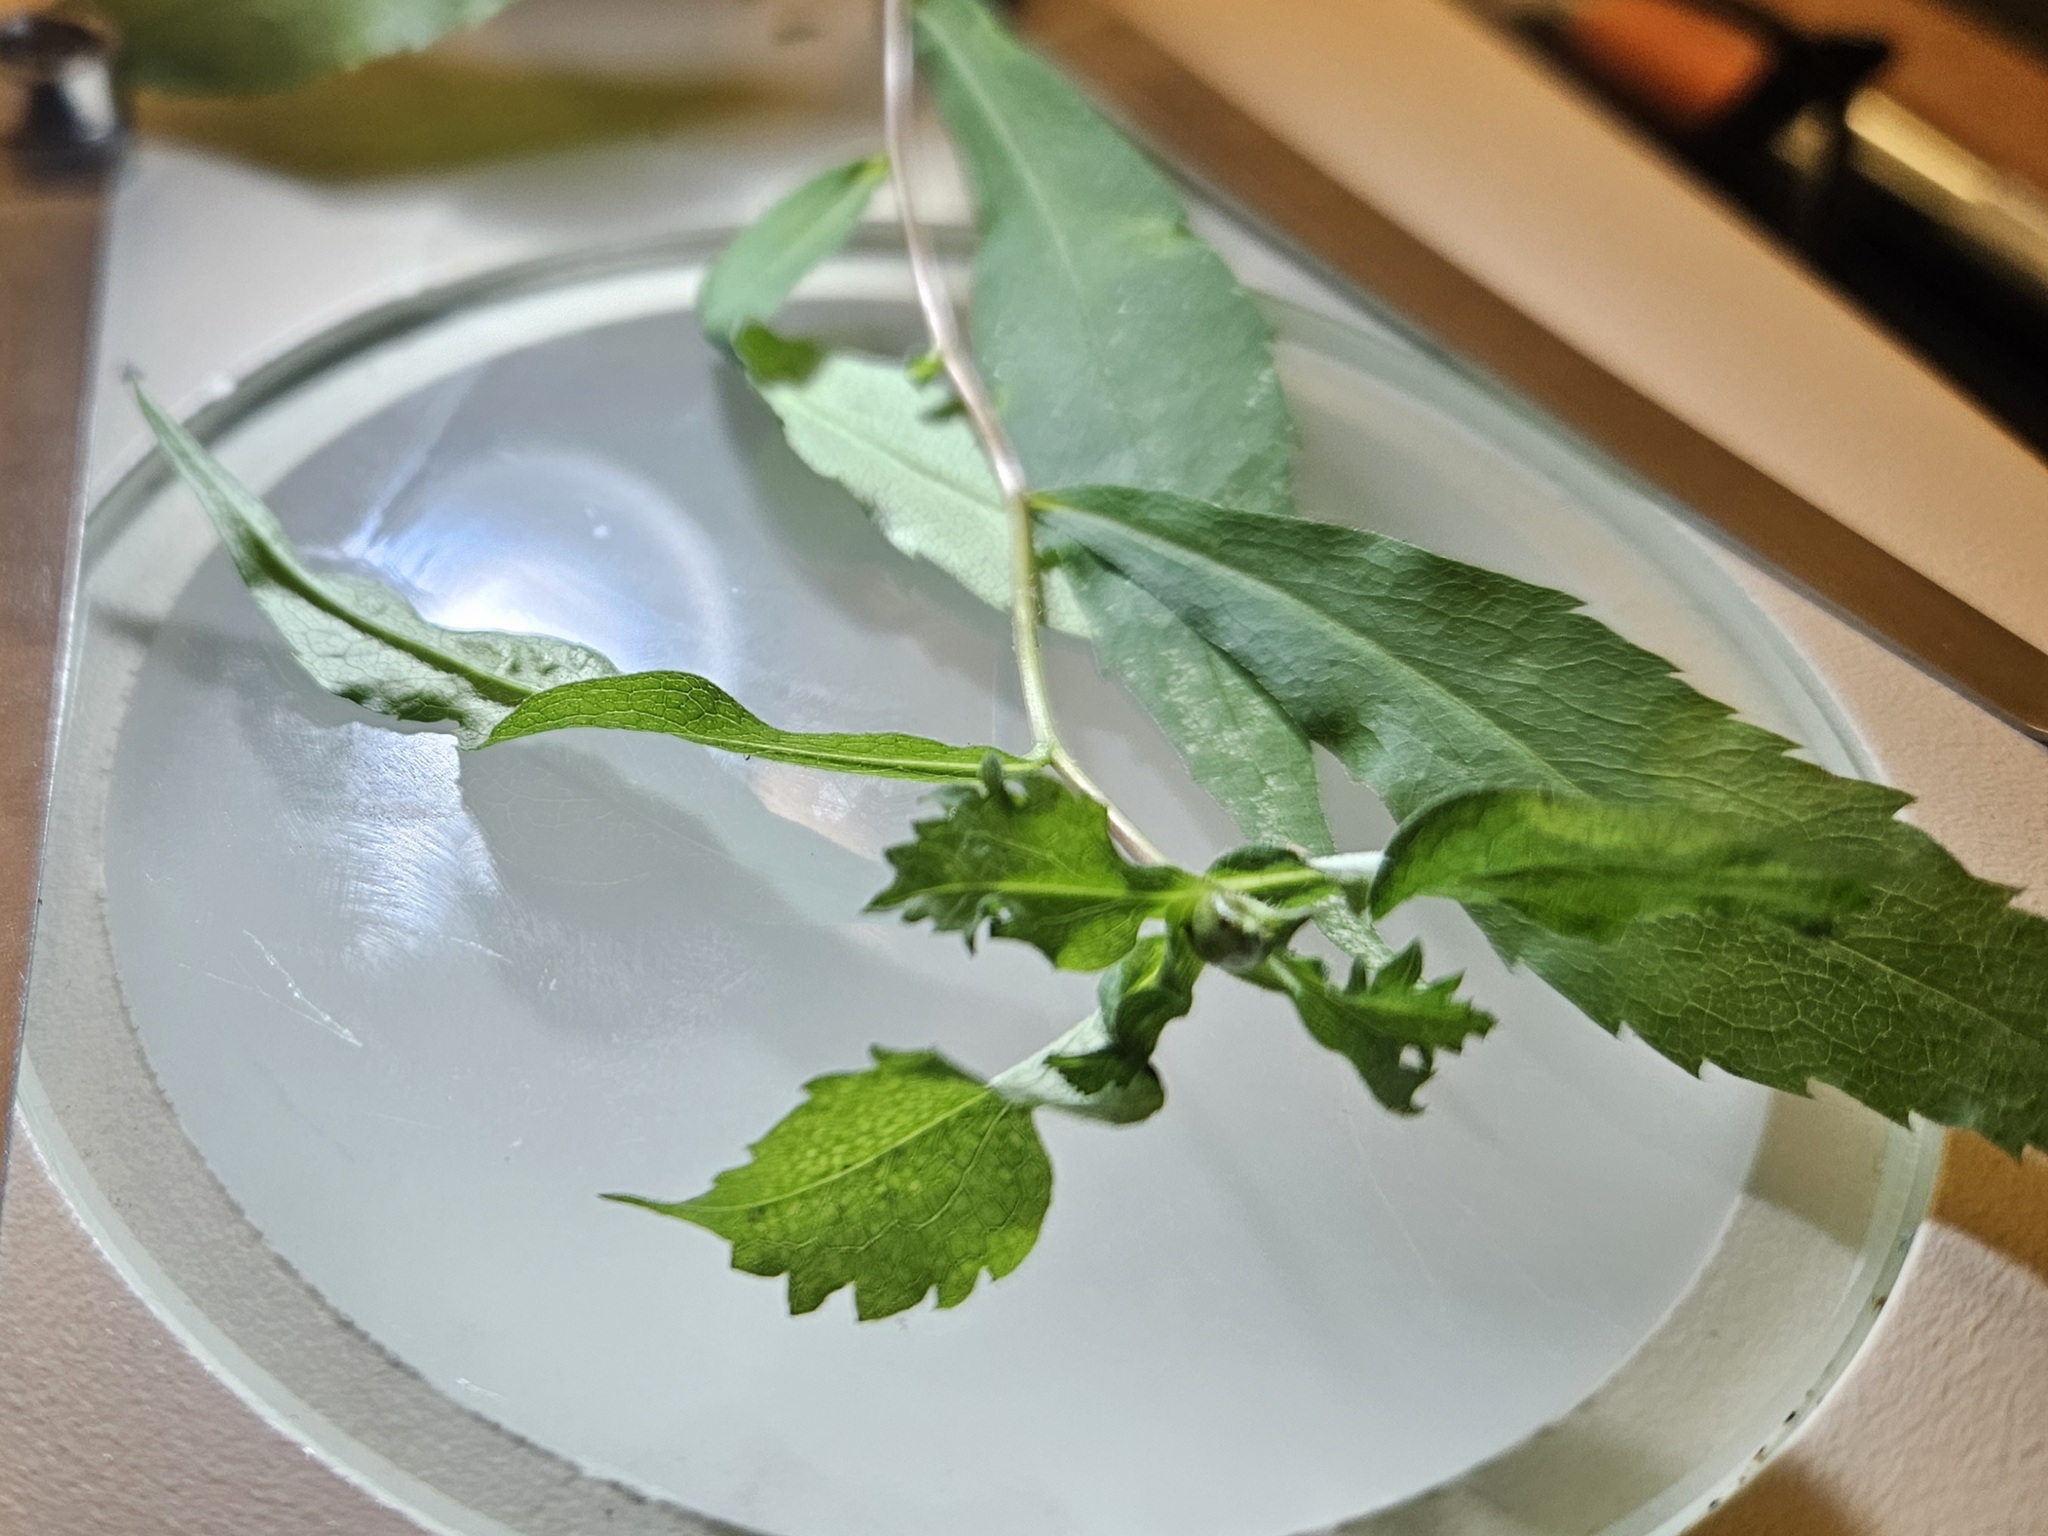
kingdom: Animalia
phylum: Arthropoda
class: Insecta
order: Diptera
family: Cecidomyiidae
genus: Asphondylia
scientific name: Asphondylia
